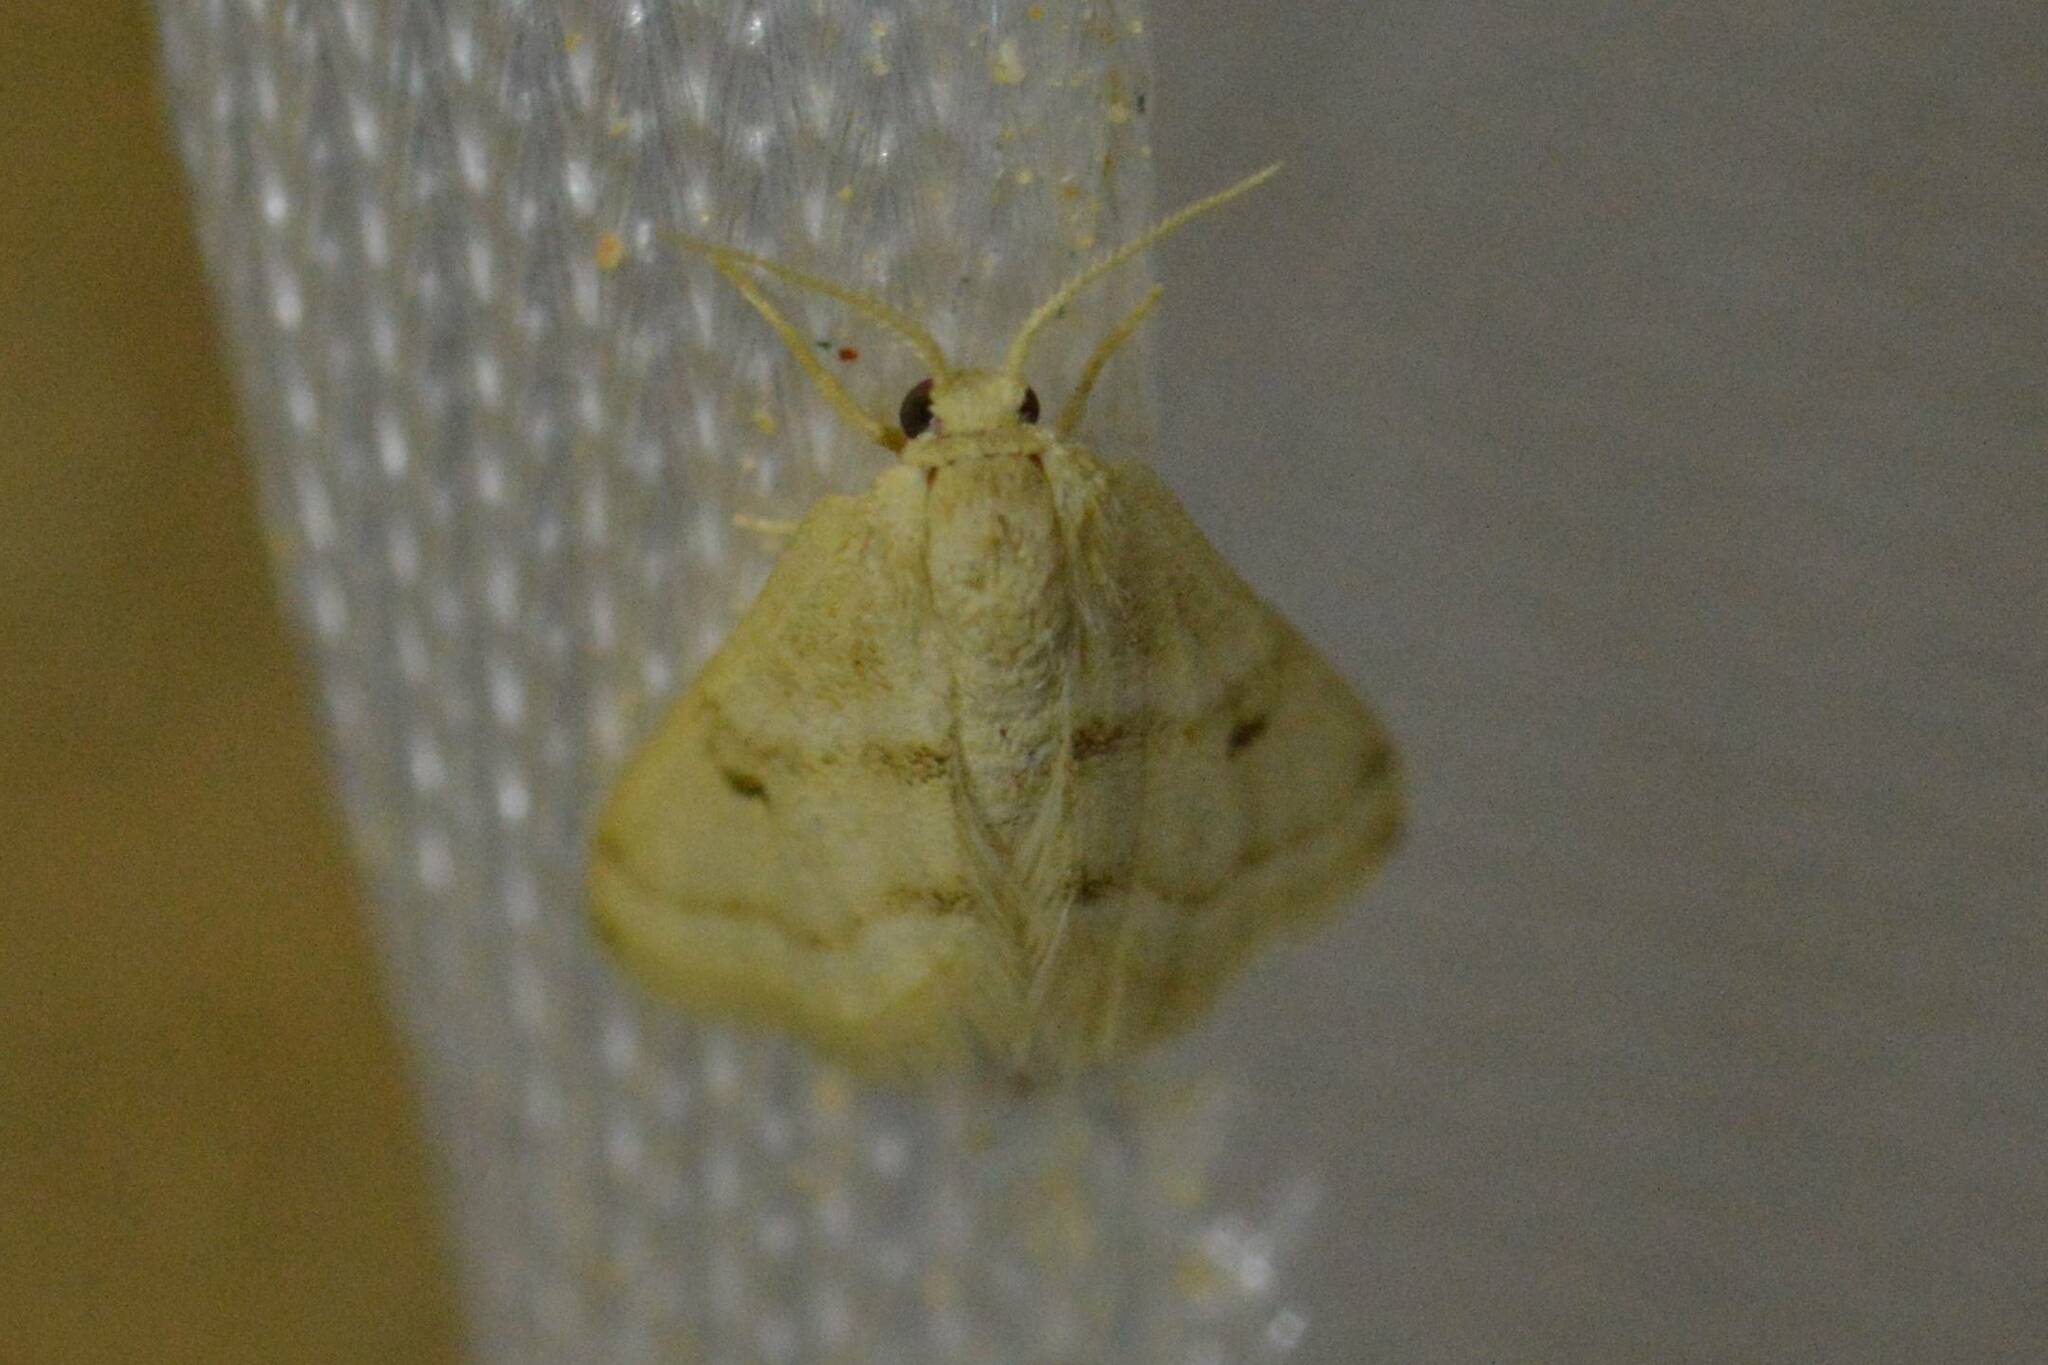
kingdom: Animalia
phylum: Arthropoda
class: Insecta
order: Lepidoptera
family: Geometridae
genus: Acidaliastis
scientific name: Acidaliastis micra
